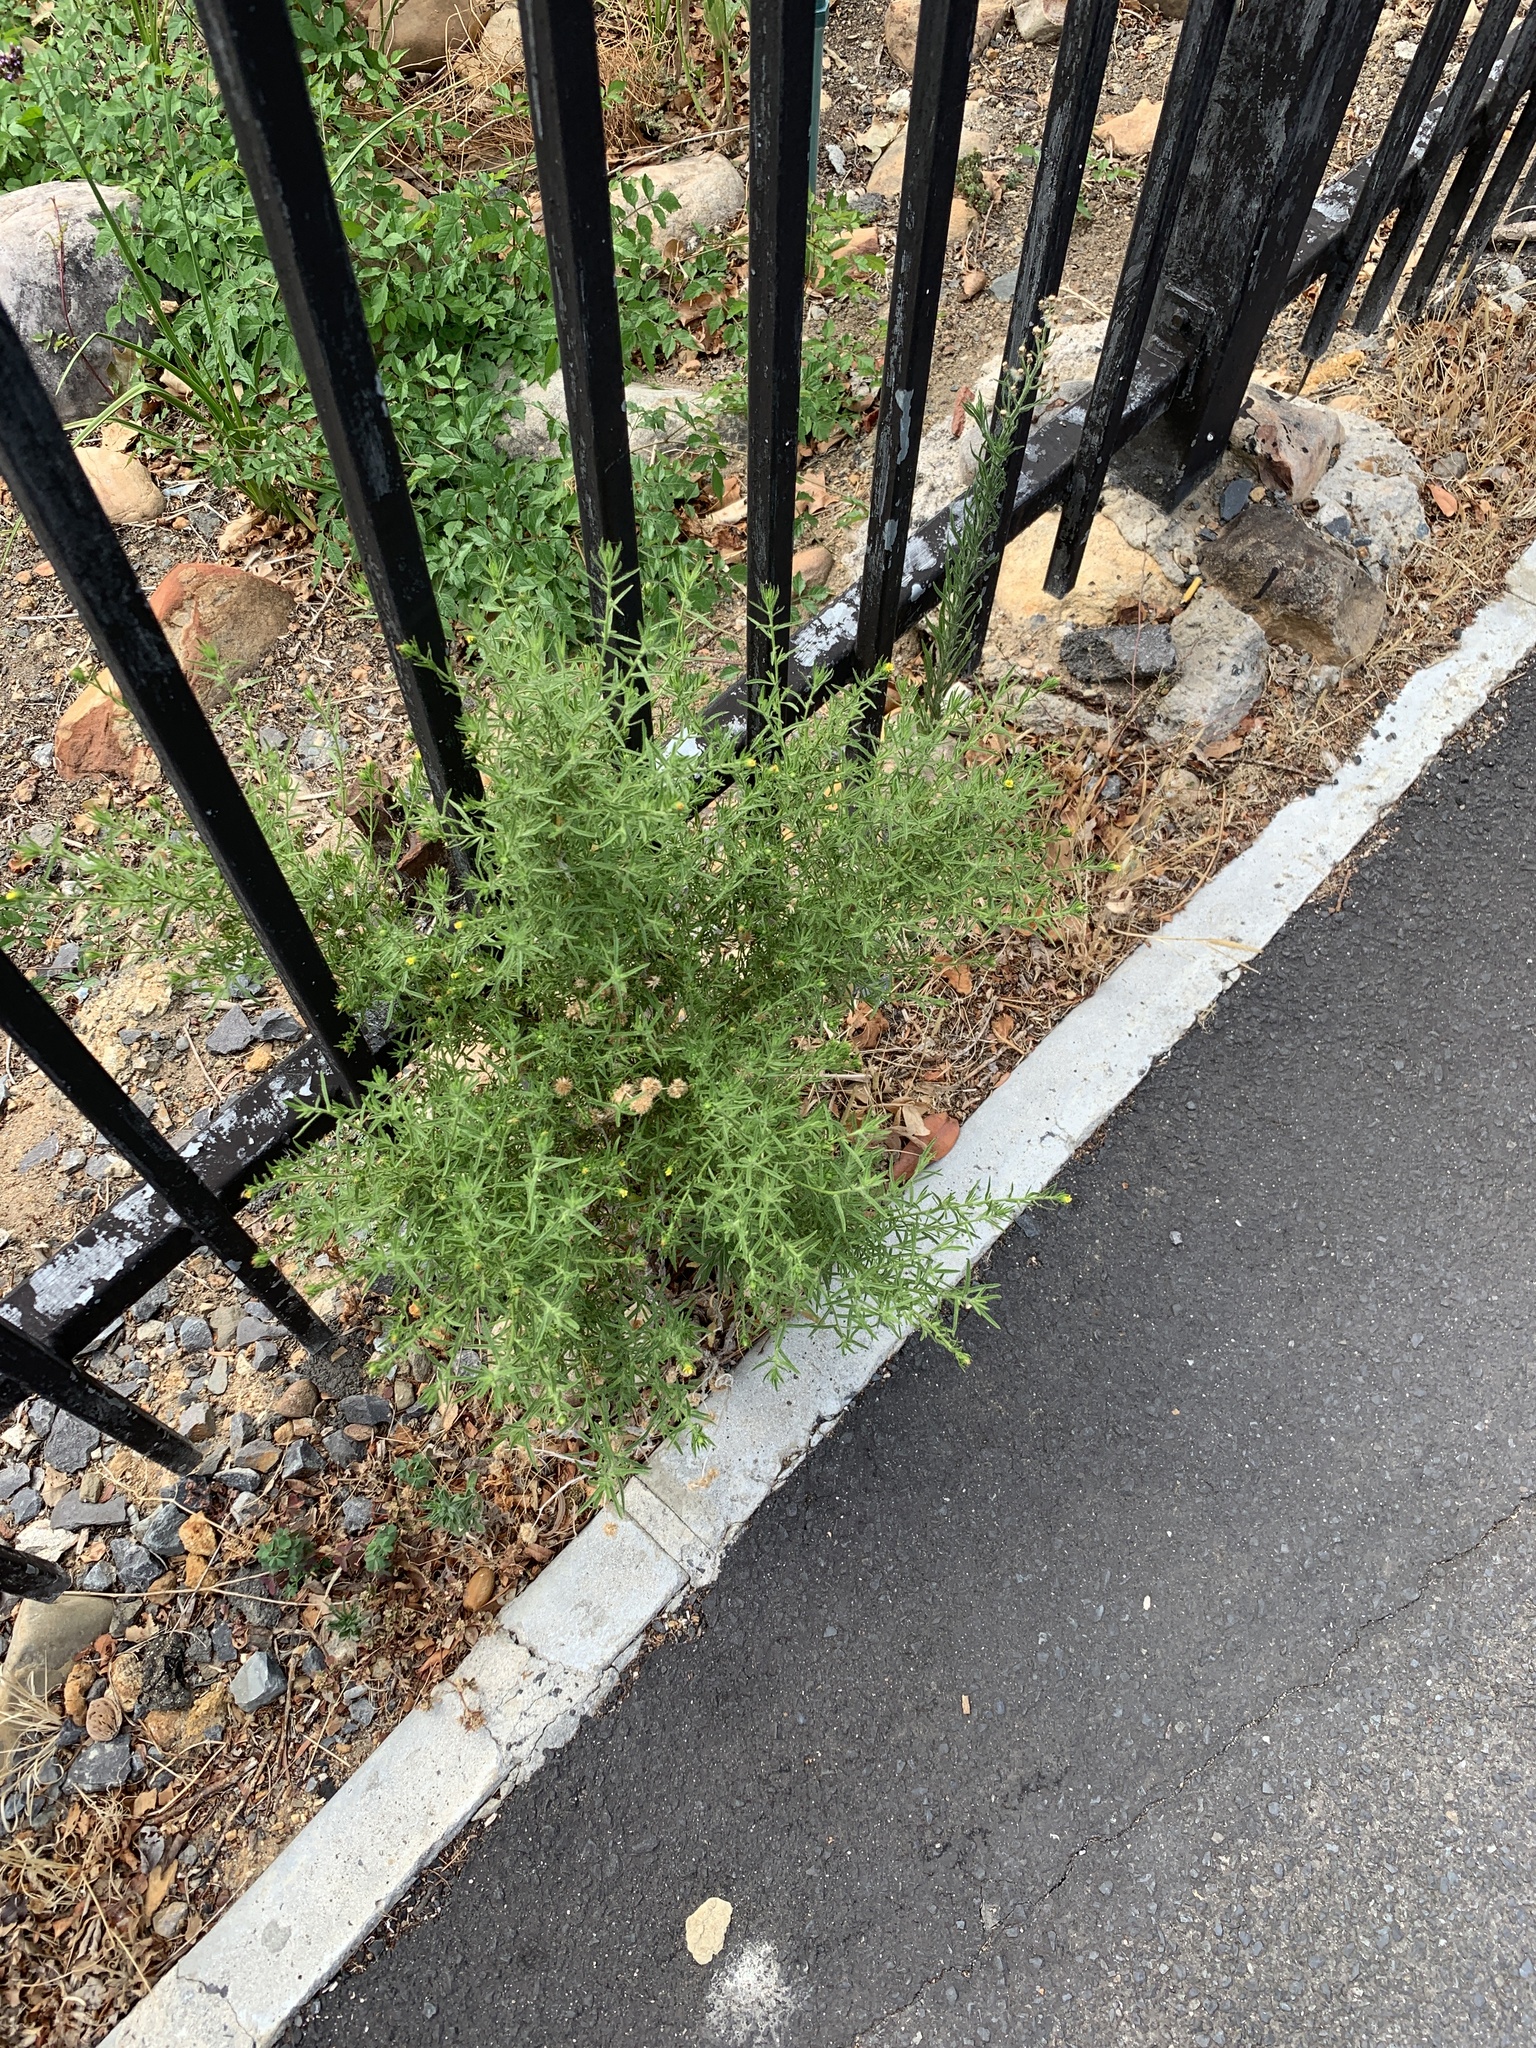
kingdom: Plantae
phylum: Tracheophyta
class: Magnoliopsida
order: Asterales
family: Asteraceae
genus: Dittrichia
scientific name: Dittrichia graveolens
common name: Stinking fleabane
